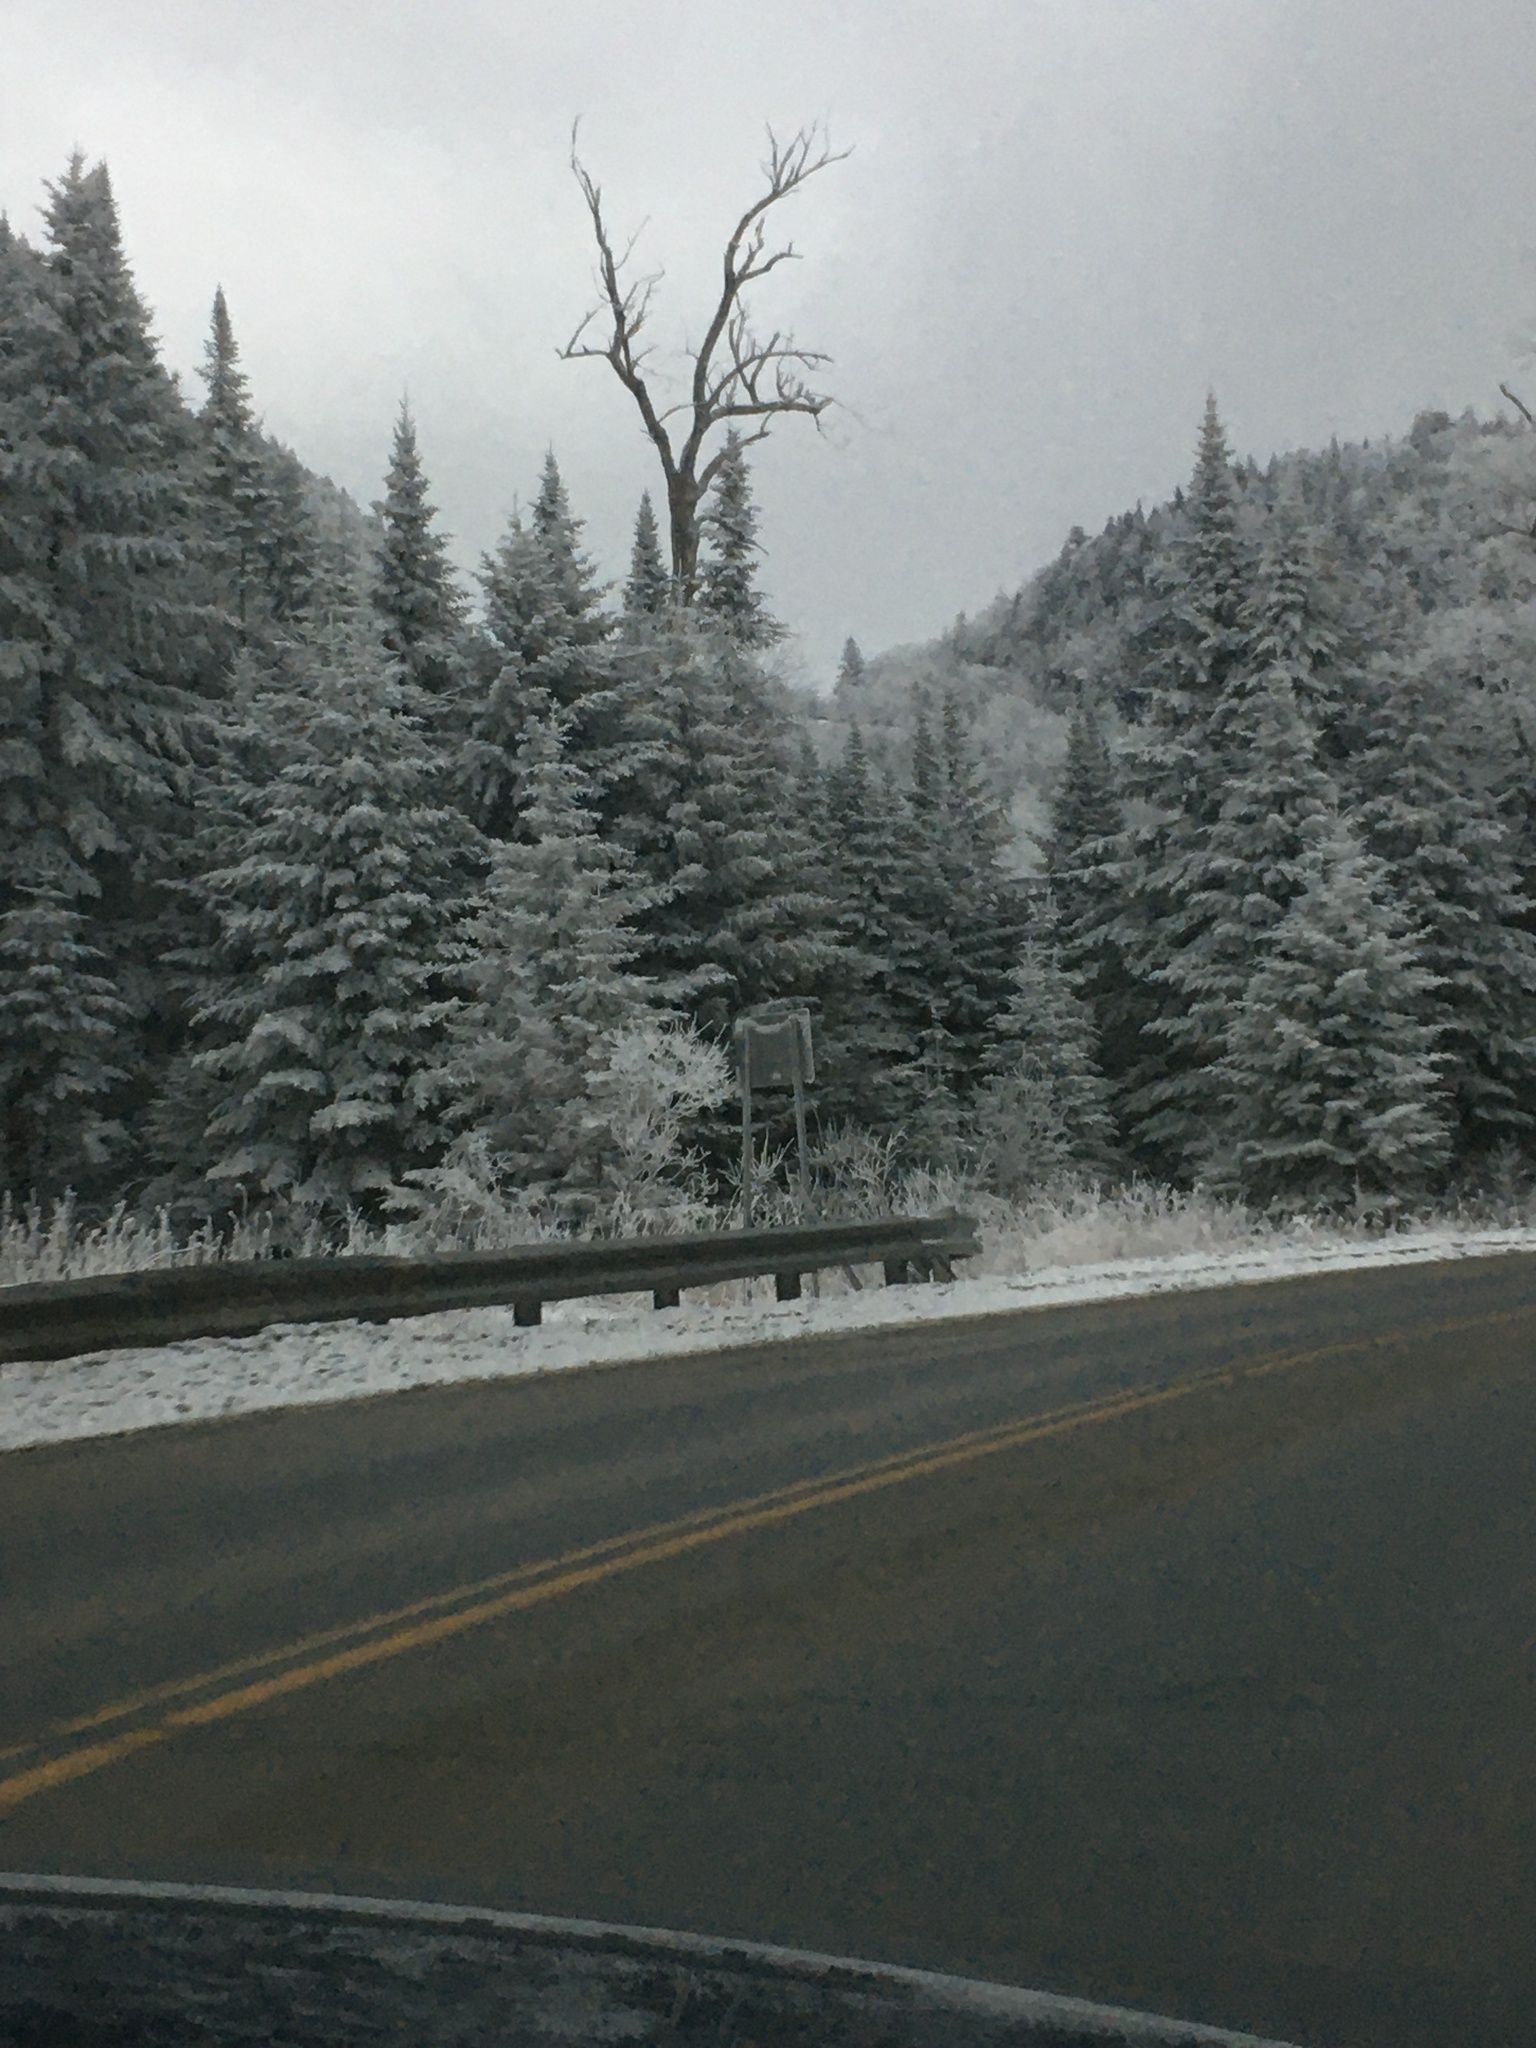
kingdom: Plantae
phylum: Tracheophyta
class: Pinopsida
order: Pinales
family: Pinaceae
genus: Abies
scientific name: Abies balsamea
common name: Balsam fir
